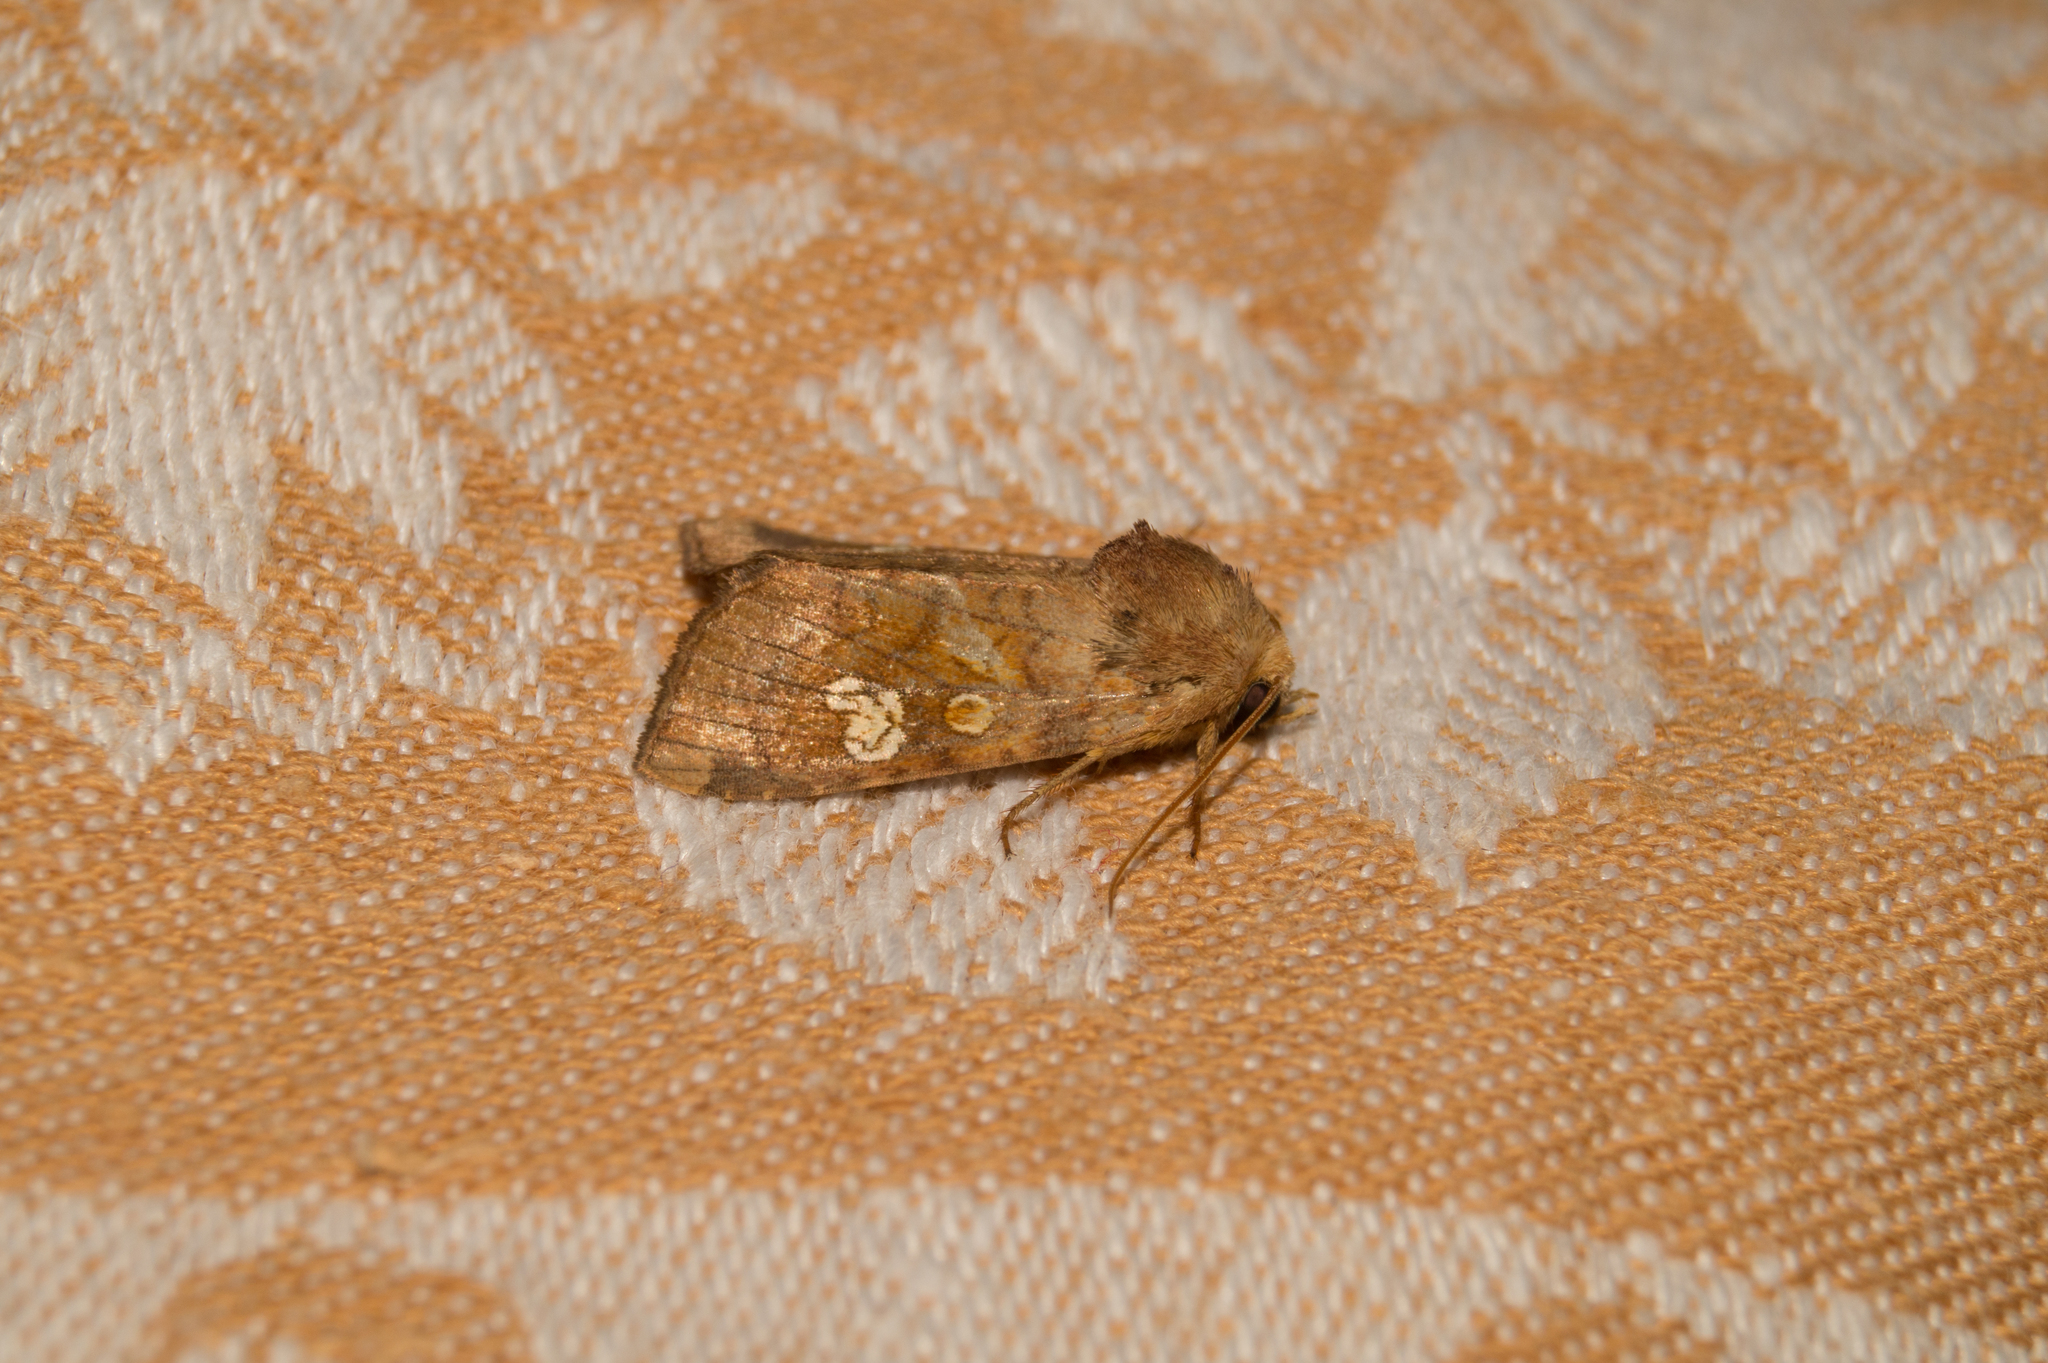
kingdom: Animalia
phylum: Arthropoda
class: Insecta
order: Lepidoptera
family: Noctuidae
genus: Amphipoea
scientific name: Amphipoea oculea
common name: Ear moth
